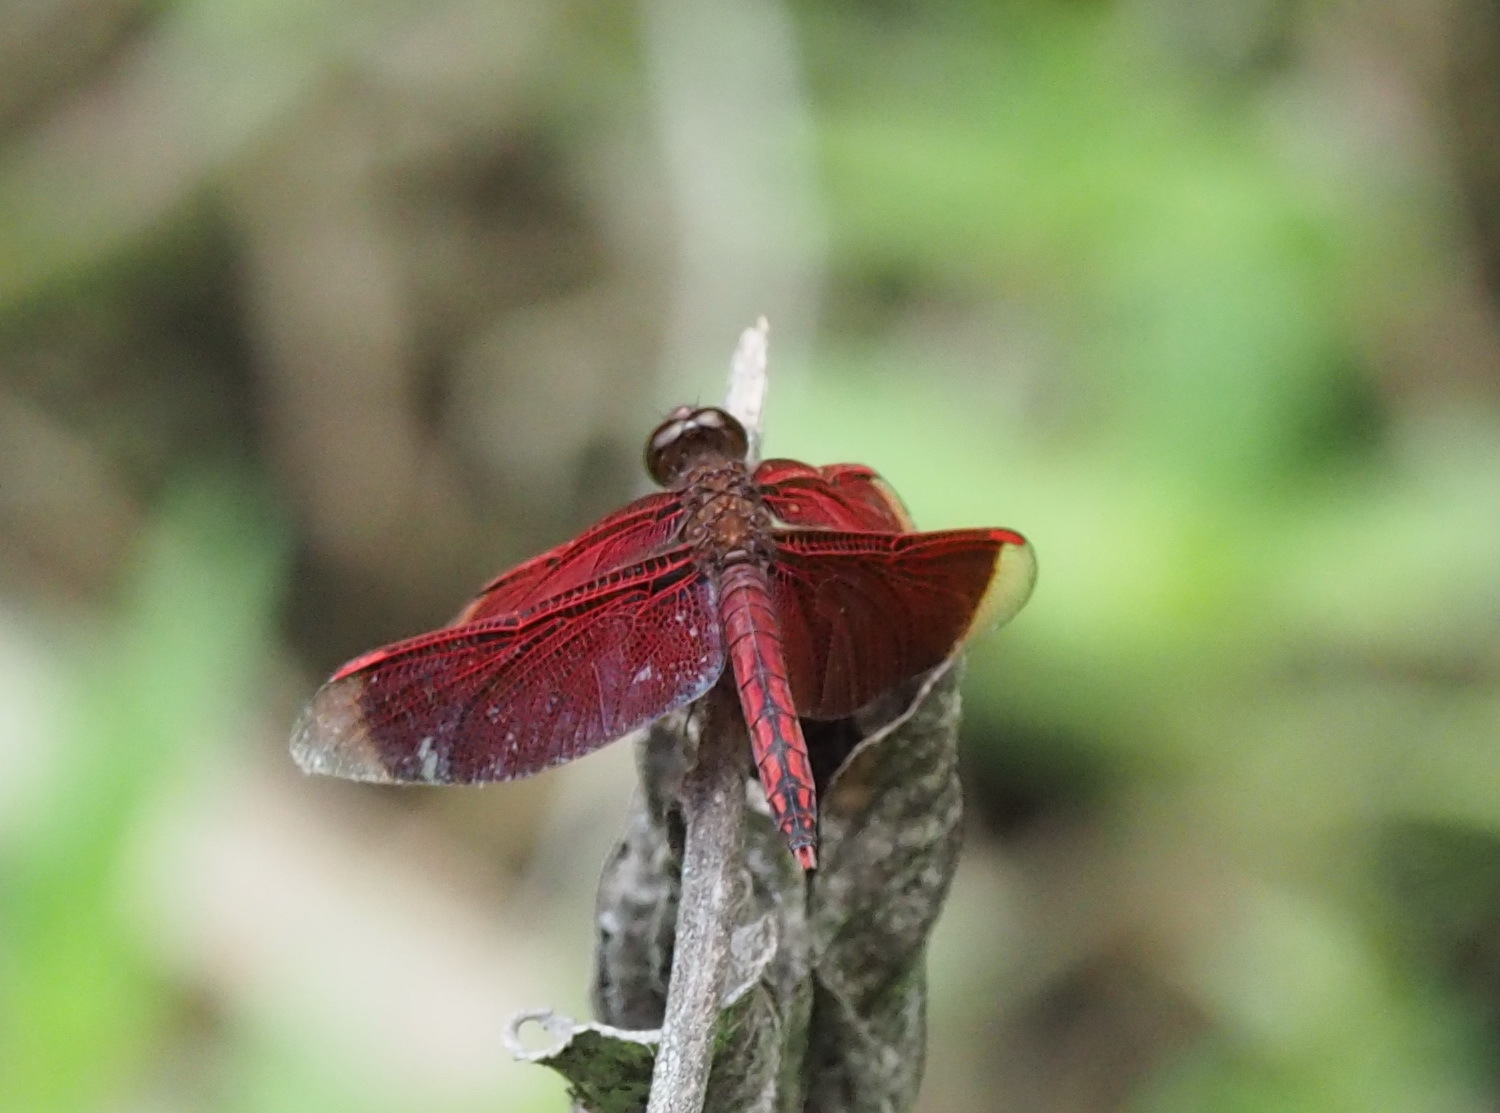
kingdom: Animalia
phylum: Arthropoda
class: Insecta
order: Odonata
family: Libellulidae
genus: Neurothemis
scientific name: Neurothemis taiwanensis
